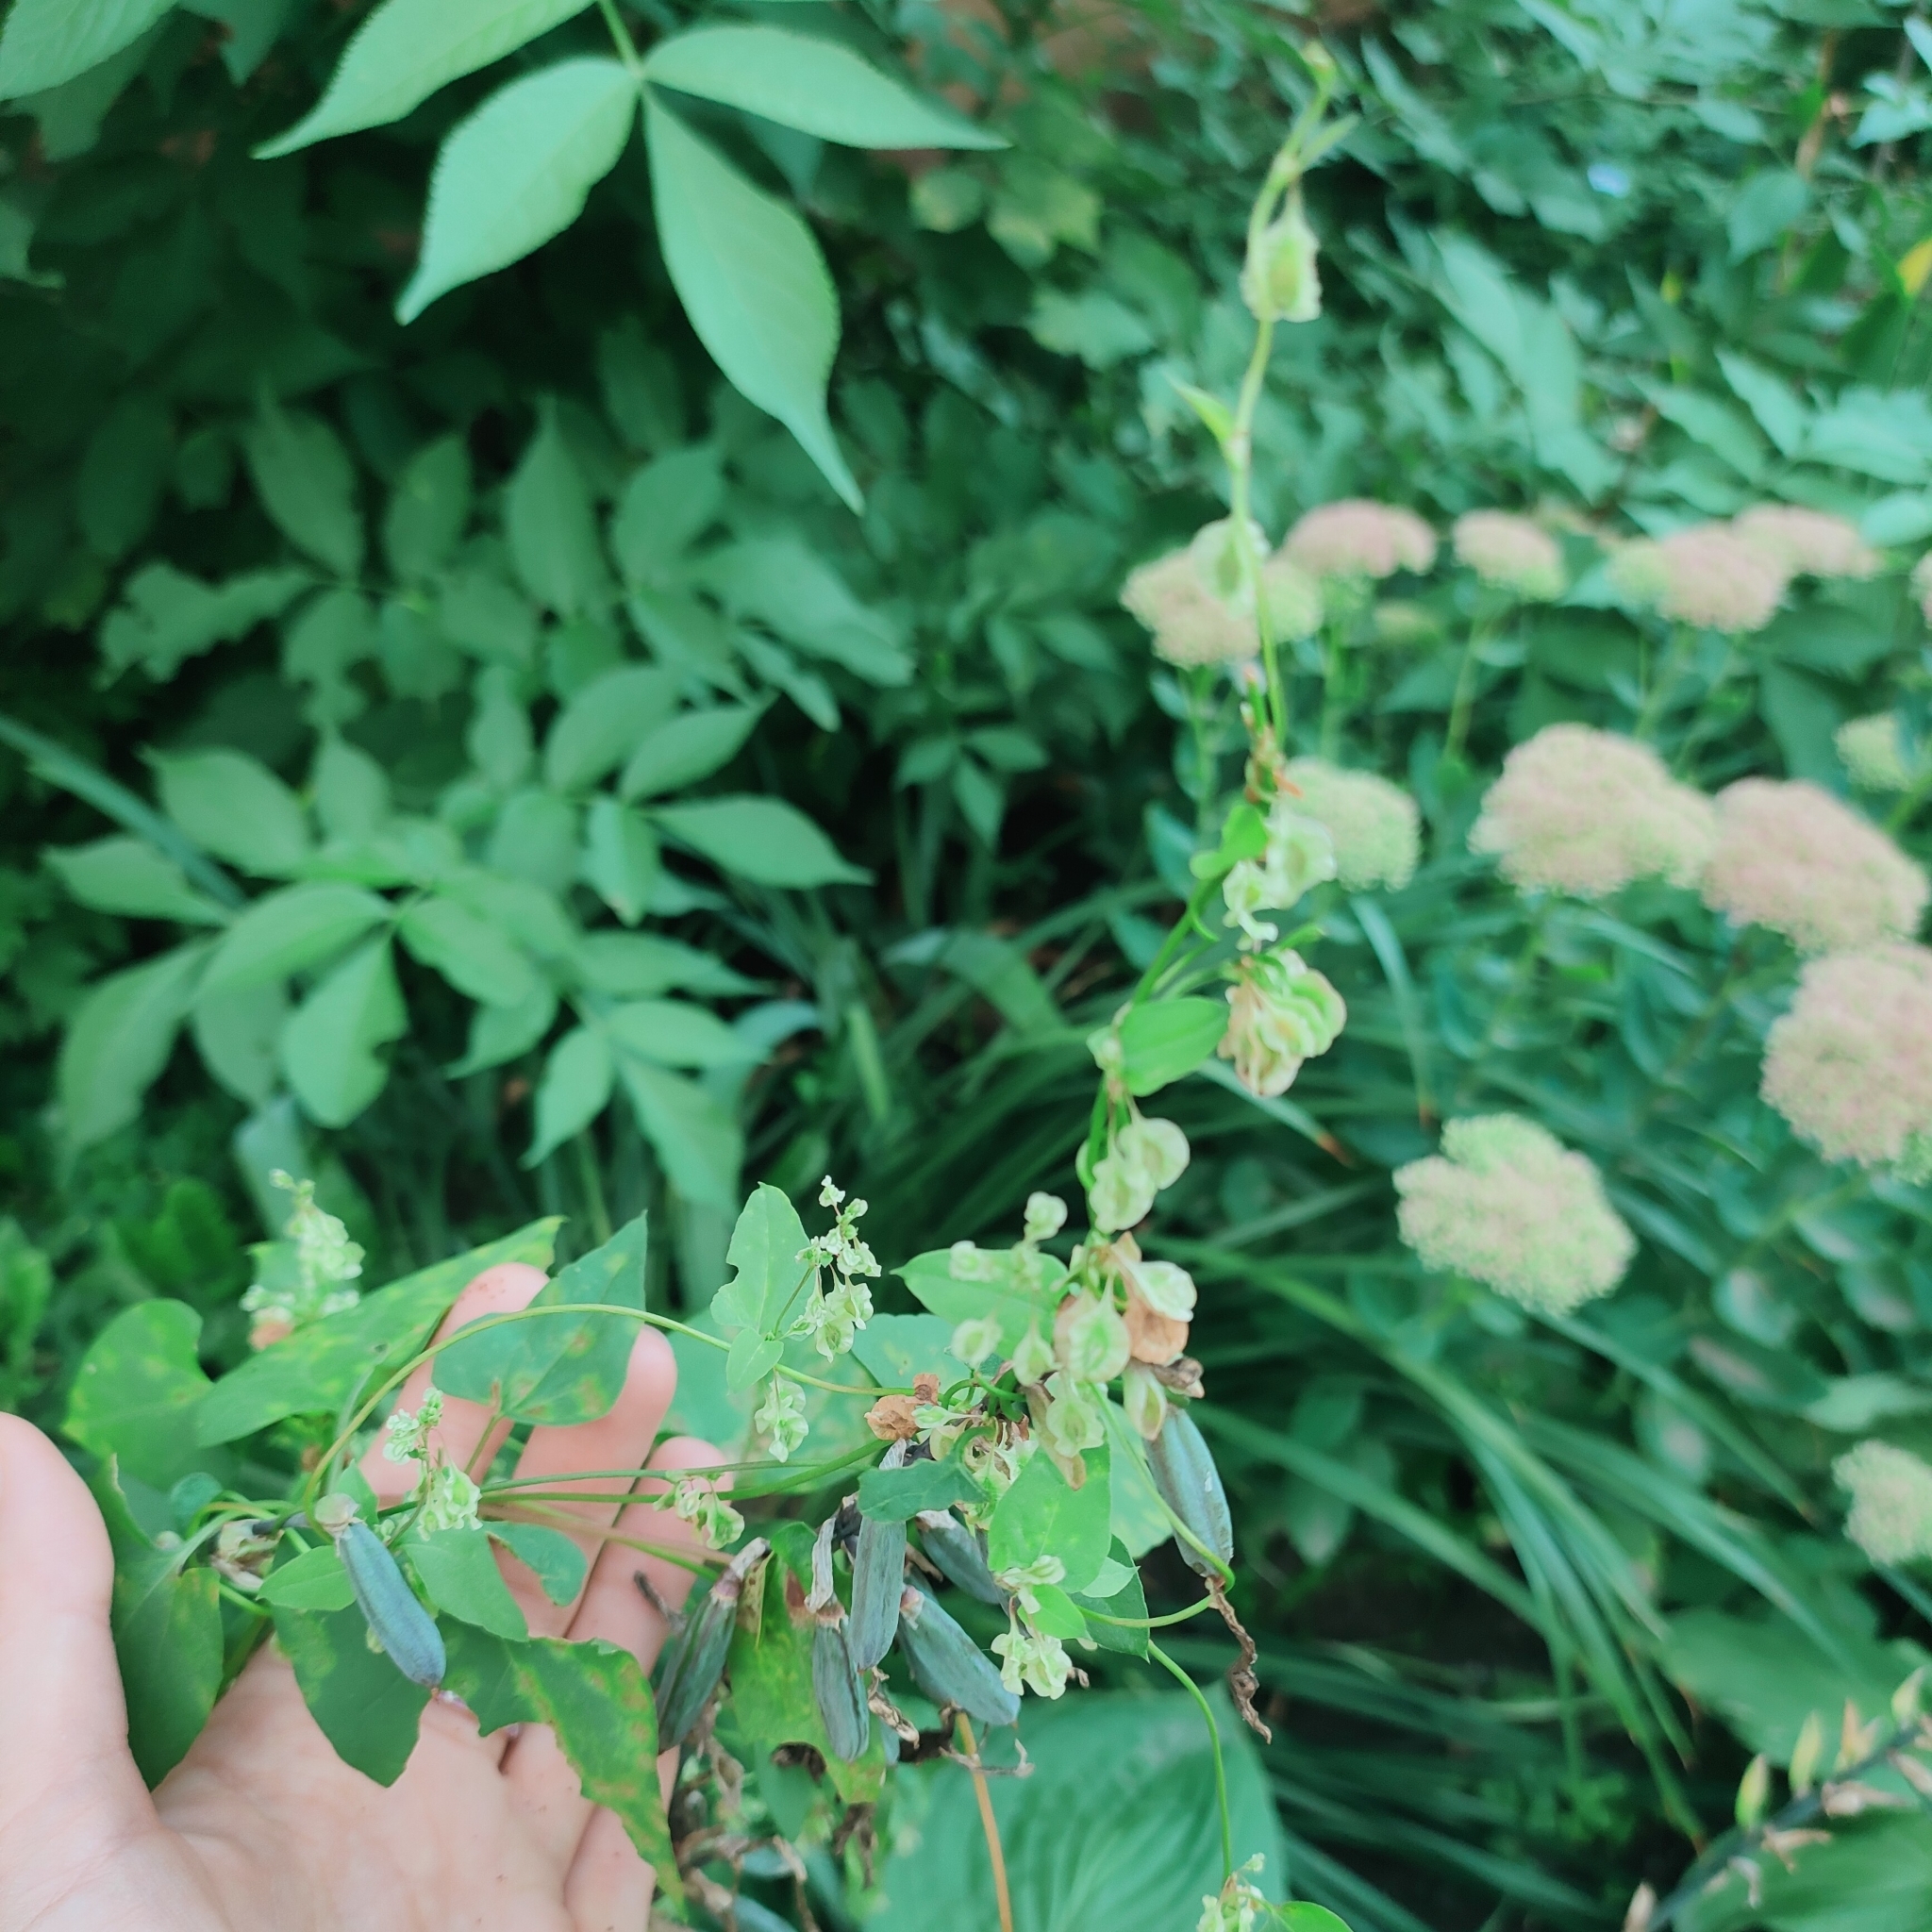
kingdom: Plantae
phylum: Tracheophyta
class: Magnoliopsida
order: Caryophyllales
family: Polygonaceae
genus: Fallopia
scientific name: Fallopia dumetorum
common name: Copse-bindweed
